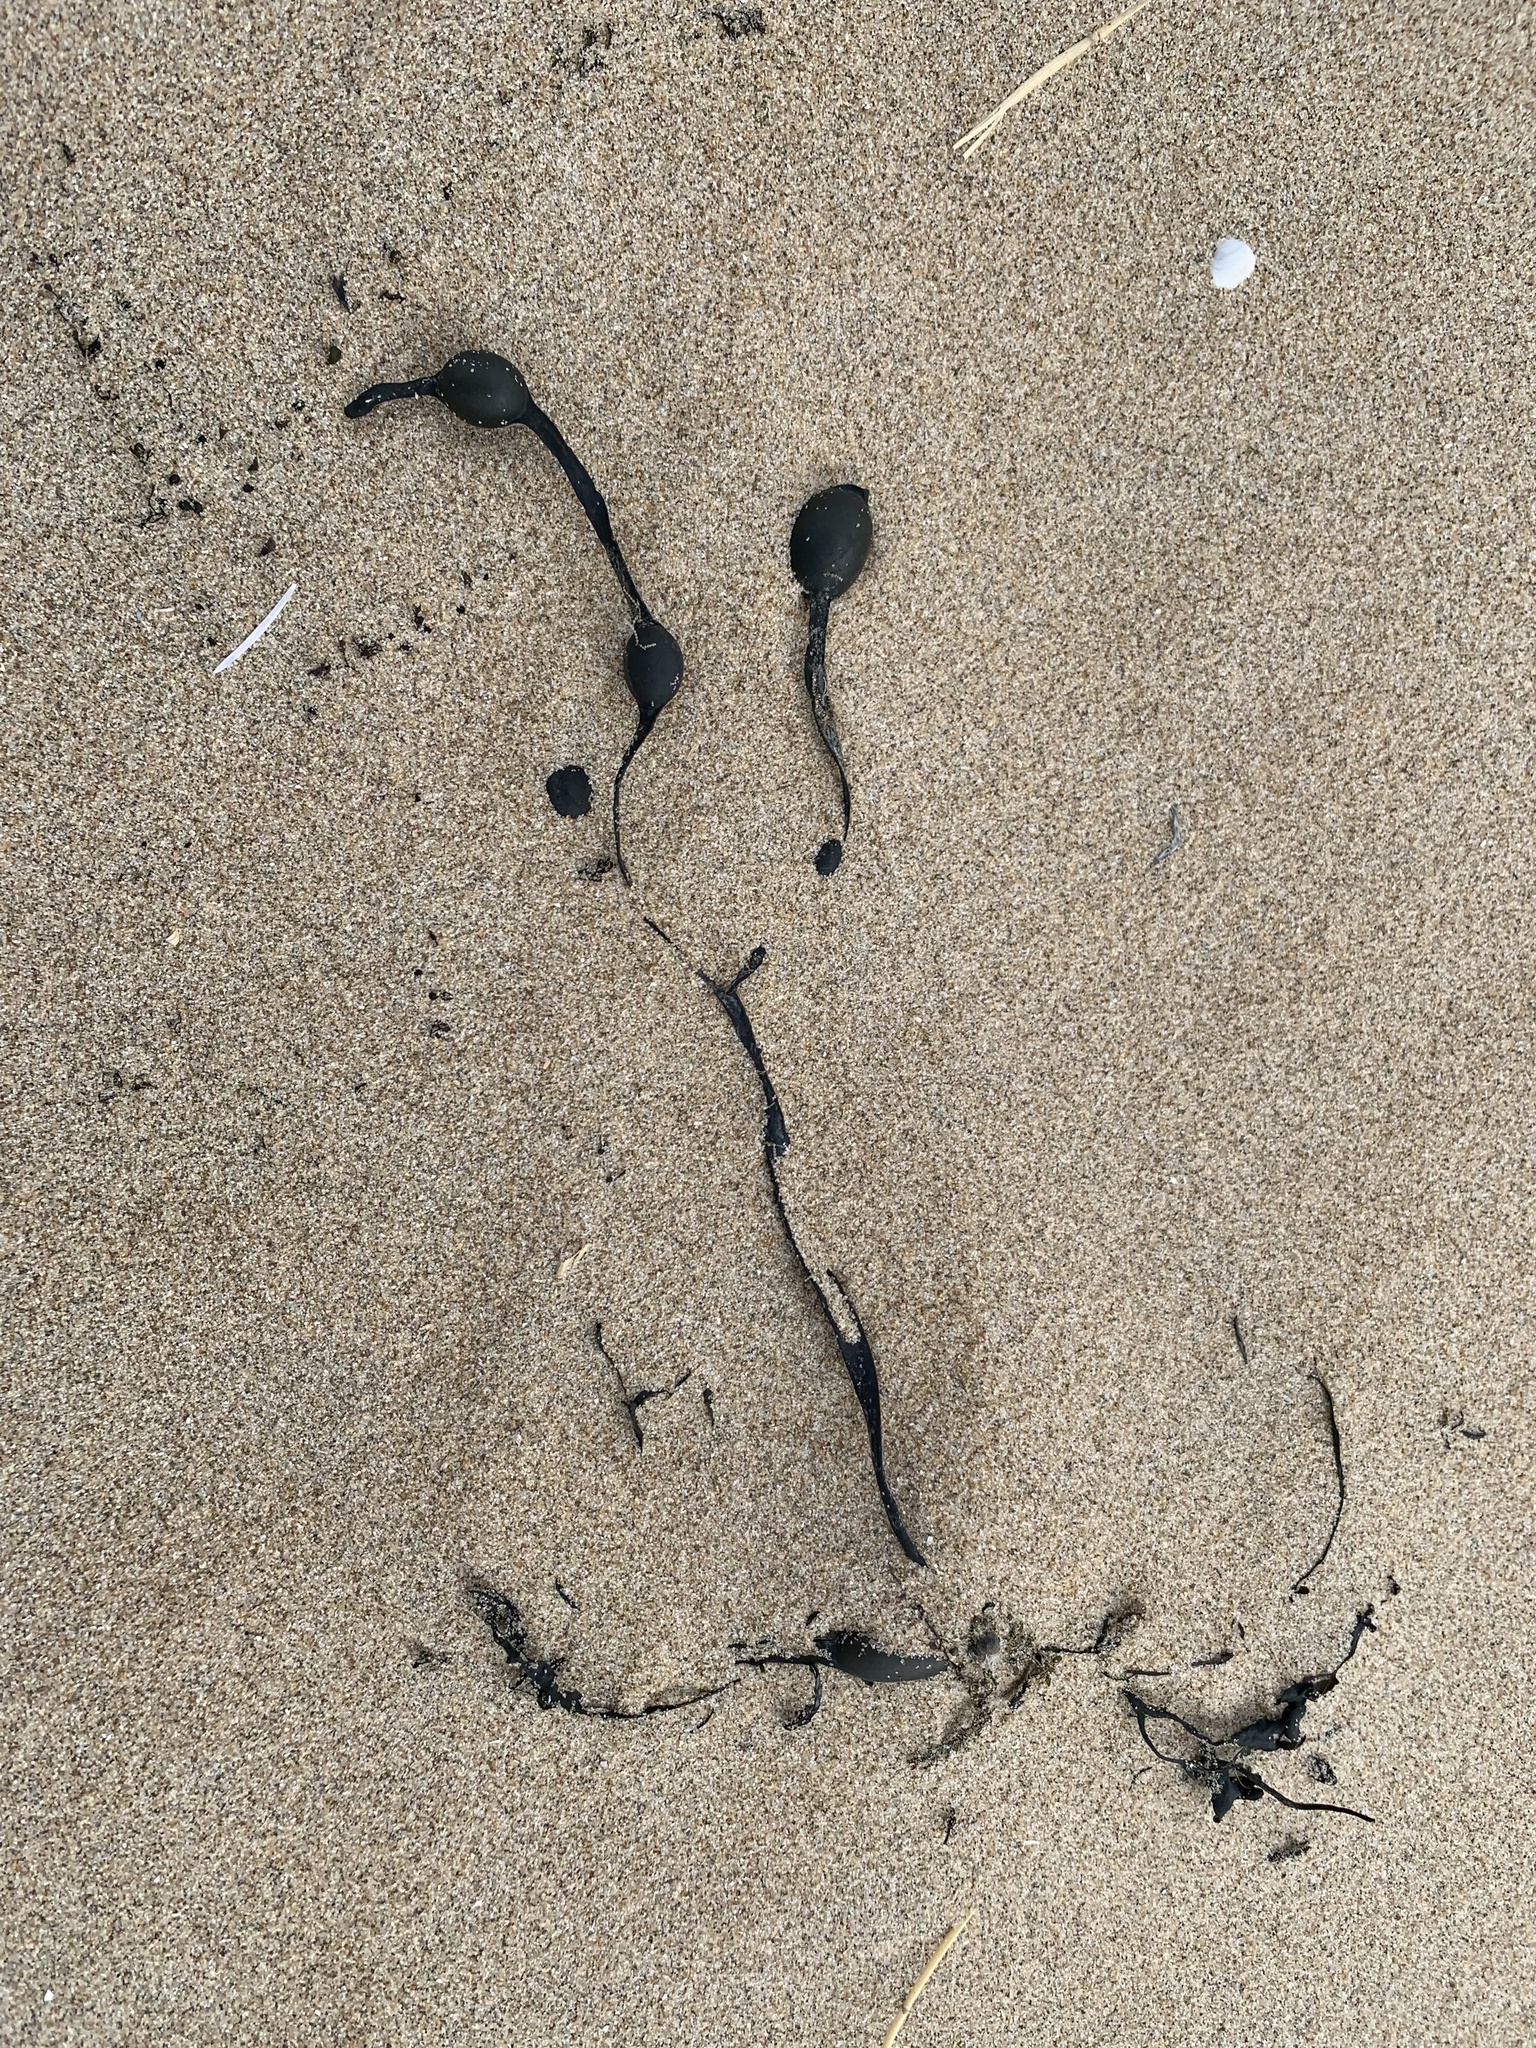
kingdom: Chromista
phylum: Ochrophyta
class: Phaeophyceae
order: Fucales
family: Fucaceae
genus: Ascophyllum
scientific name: Ascophyllum nodosum
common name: Knotted wrack
